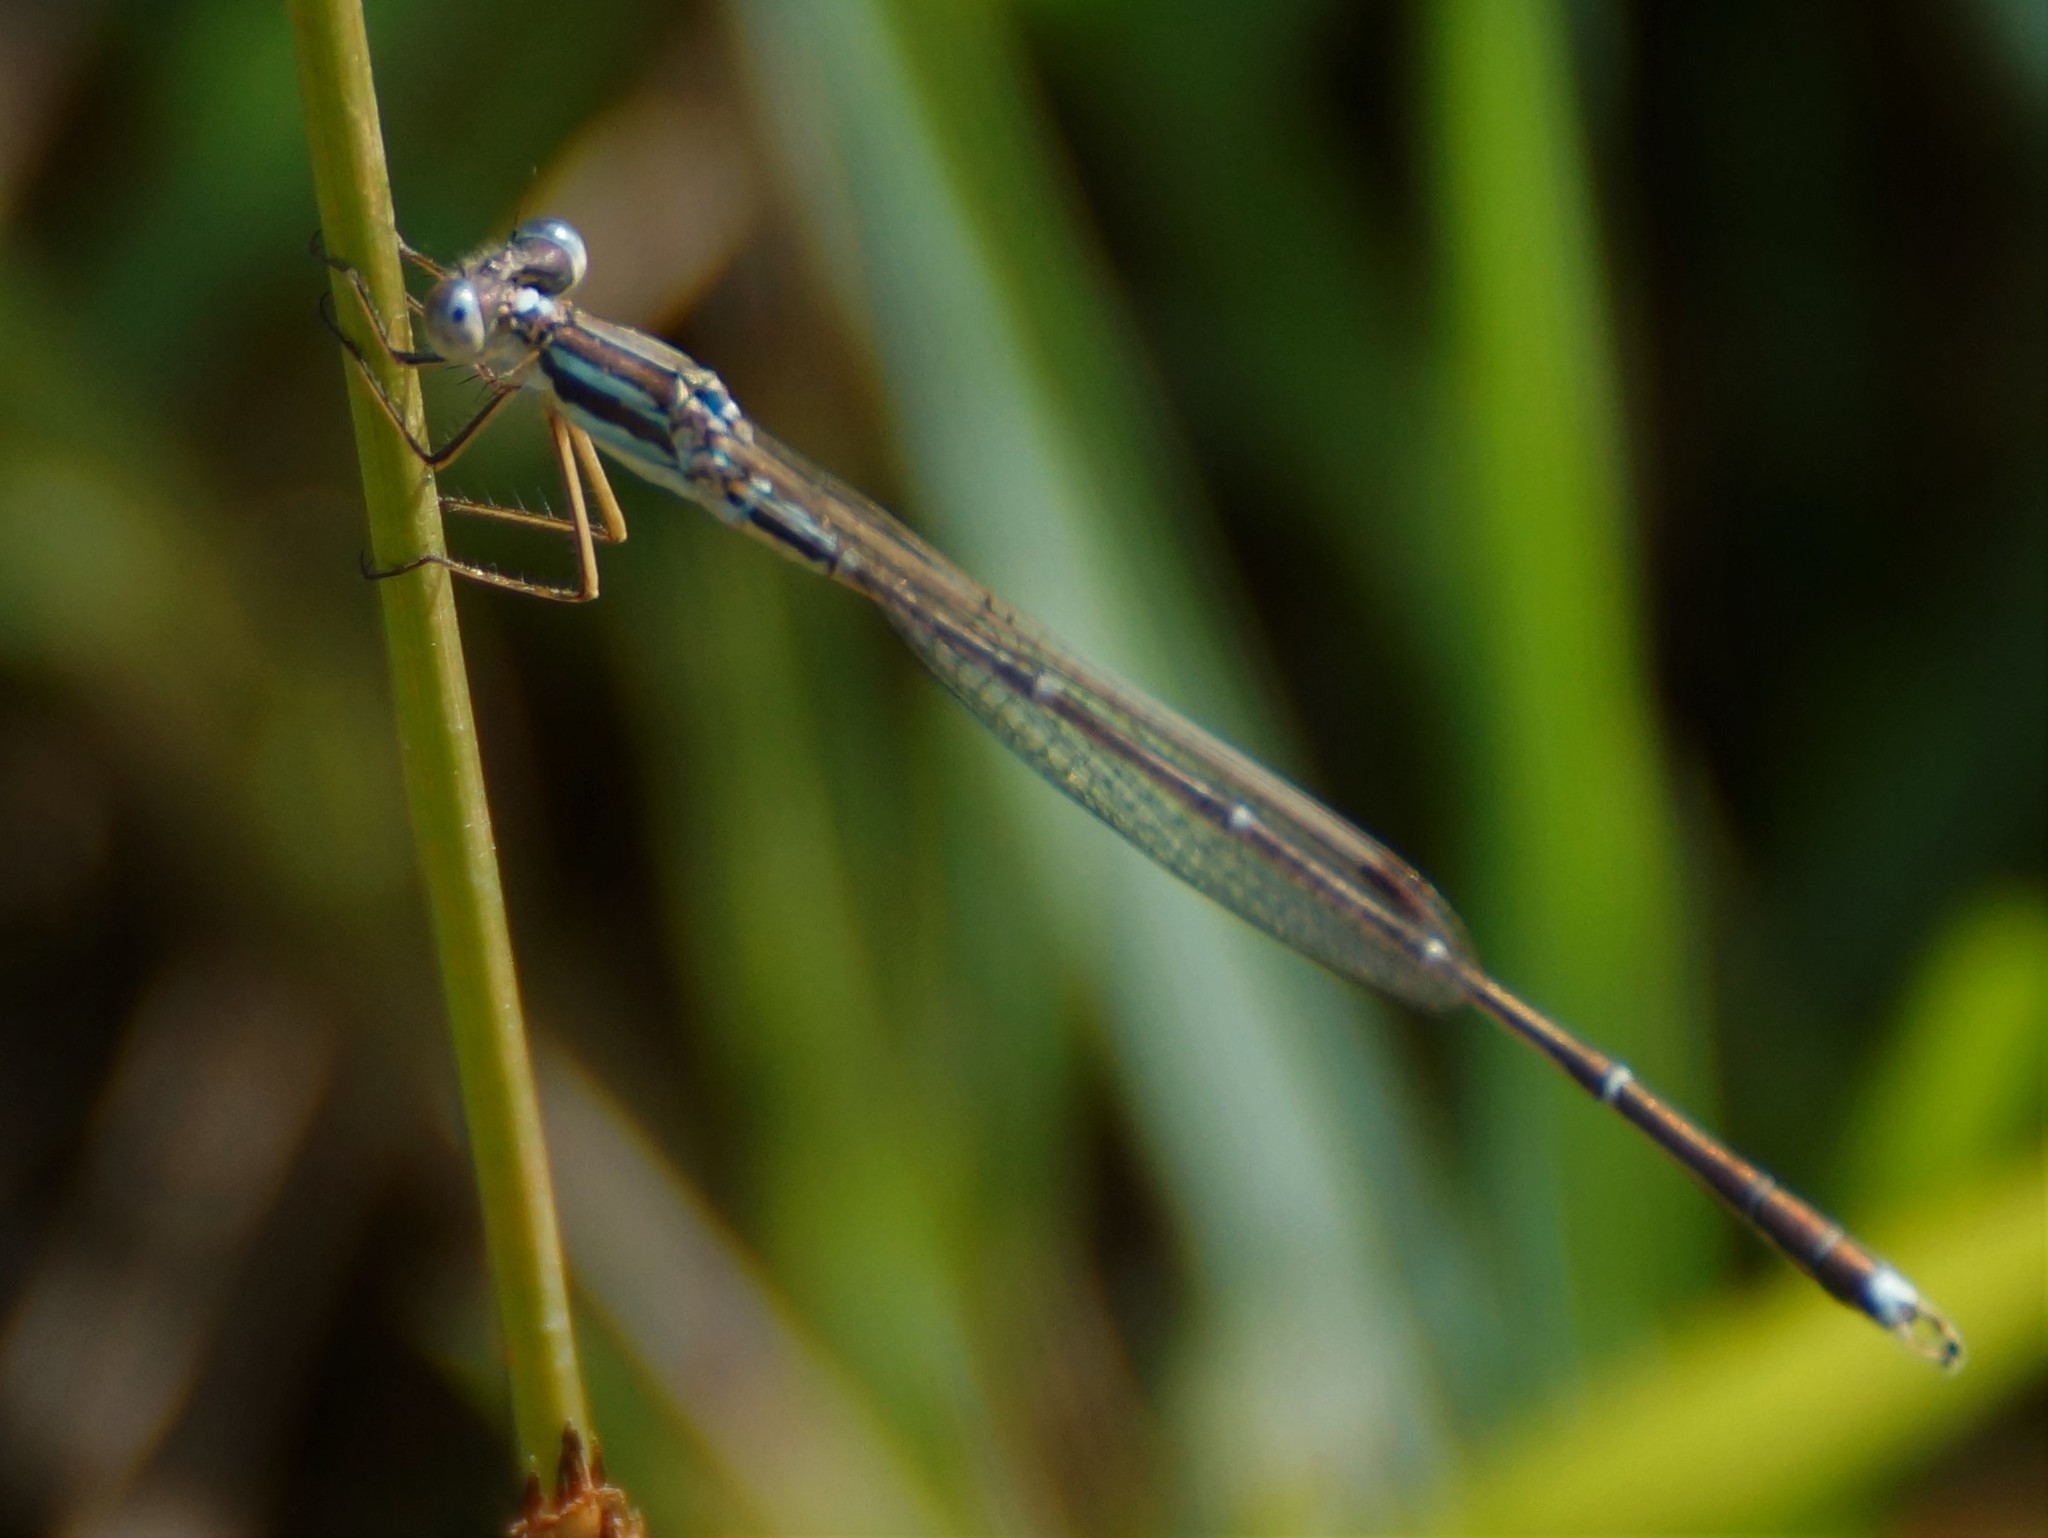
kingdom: Animalia
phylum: Arthropoda
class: Insecta
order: Odonata
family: Lestidae
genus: Austrolestes
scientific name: Austrolestes analis
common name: Slender ringtail
